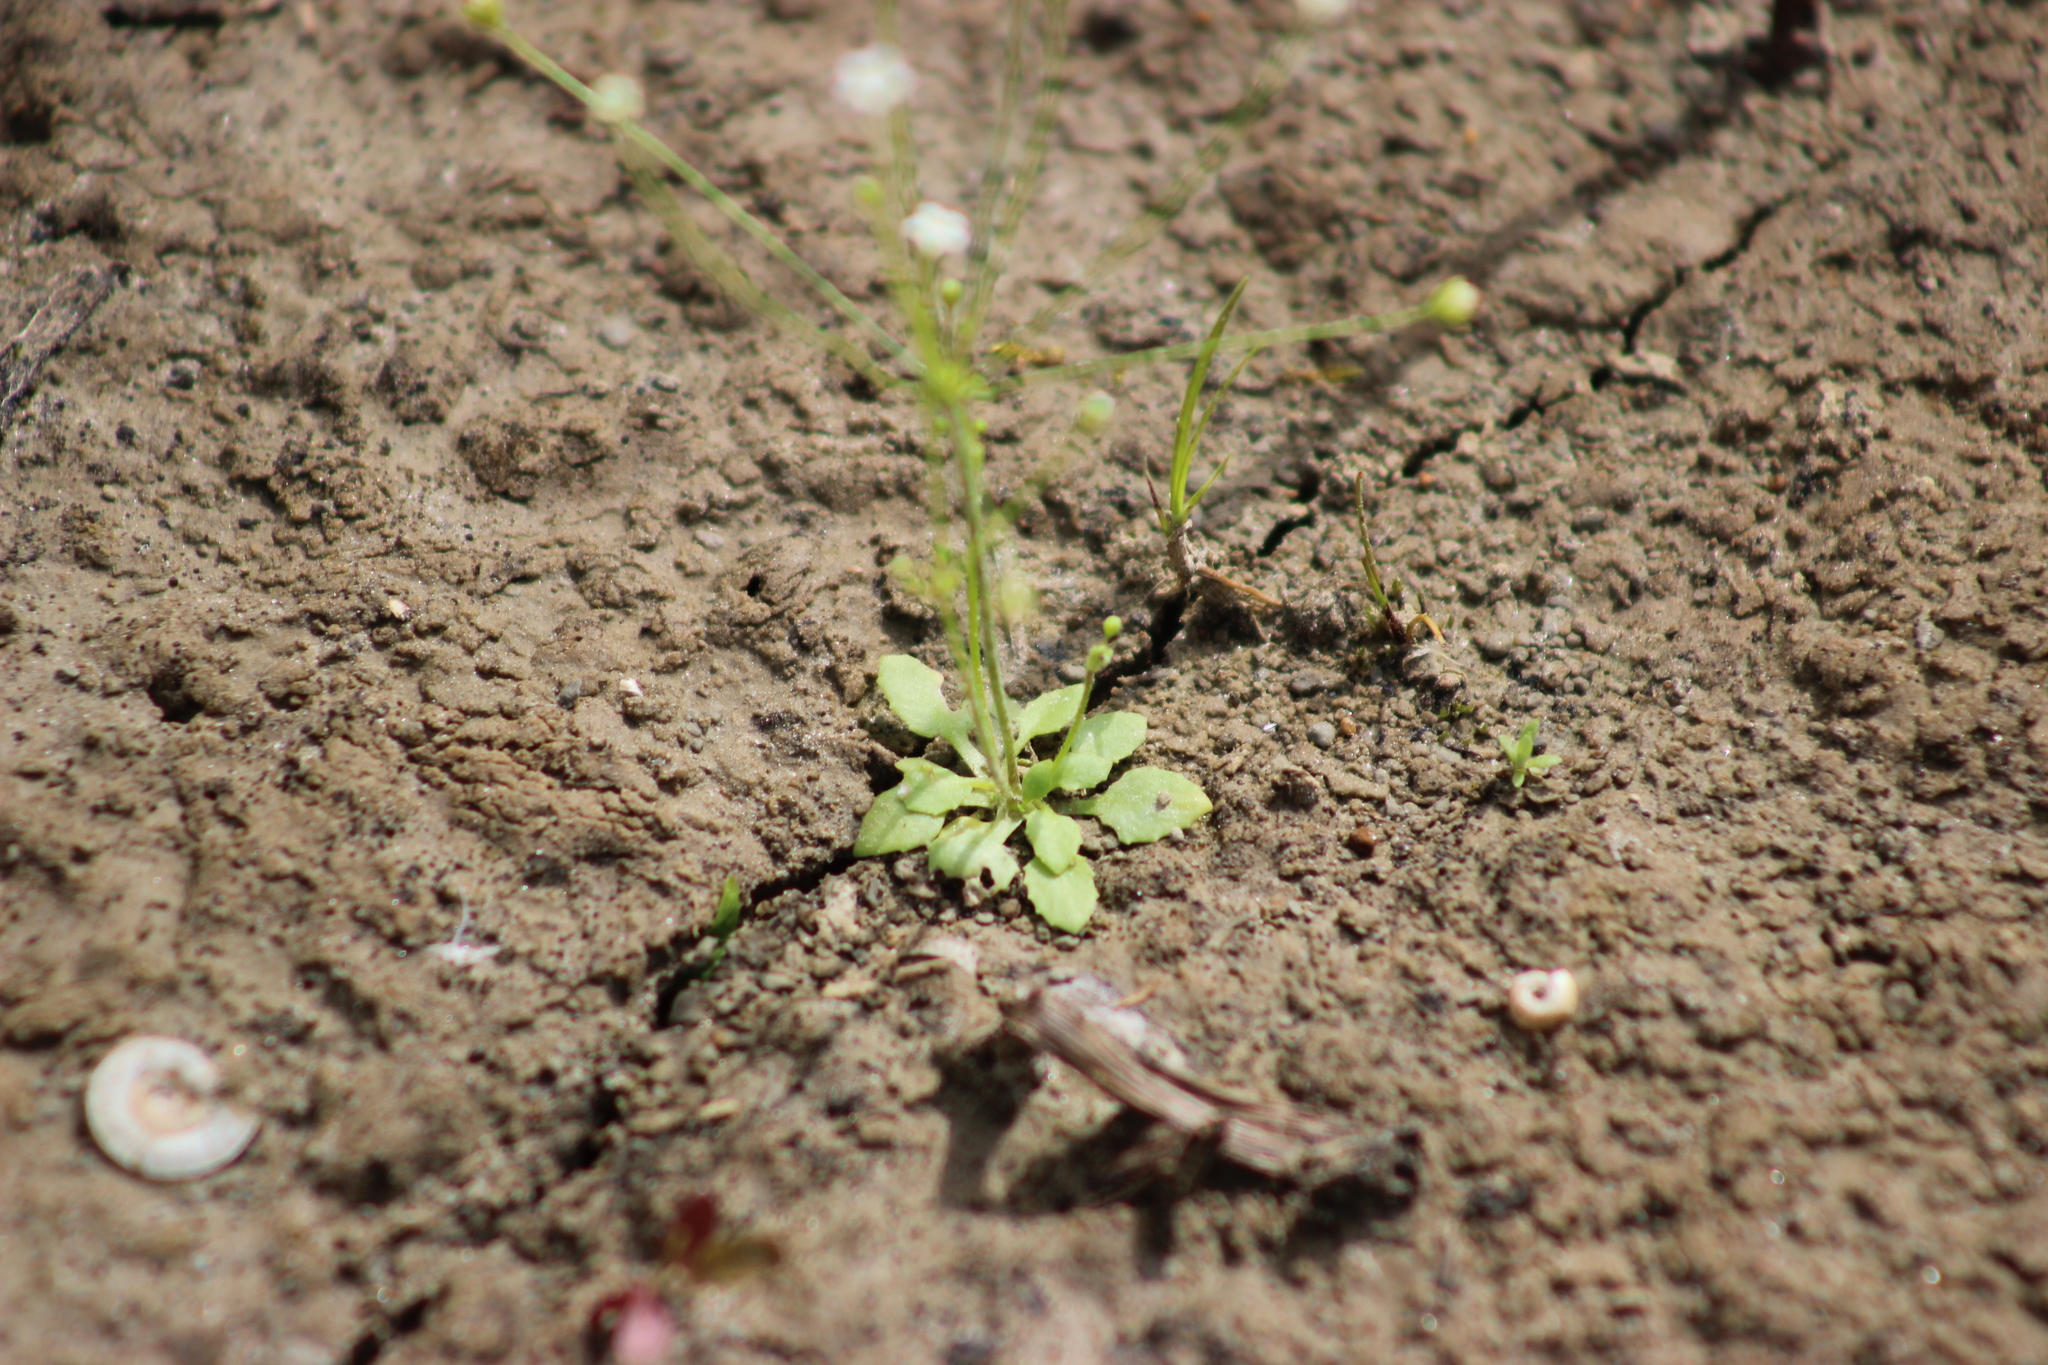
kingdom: Plantae
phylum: Tracheophyta
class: Magnoliopsida
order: Ericales
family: Primulaceae
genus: Androsace
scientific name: Androsace filiformis
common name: Filiform rock jasmine
